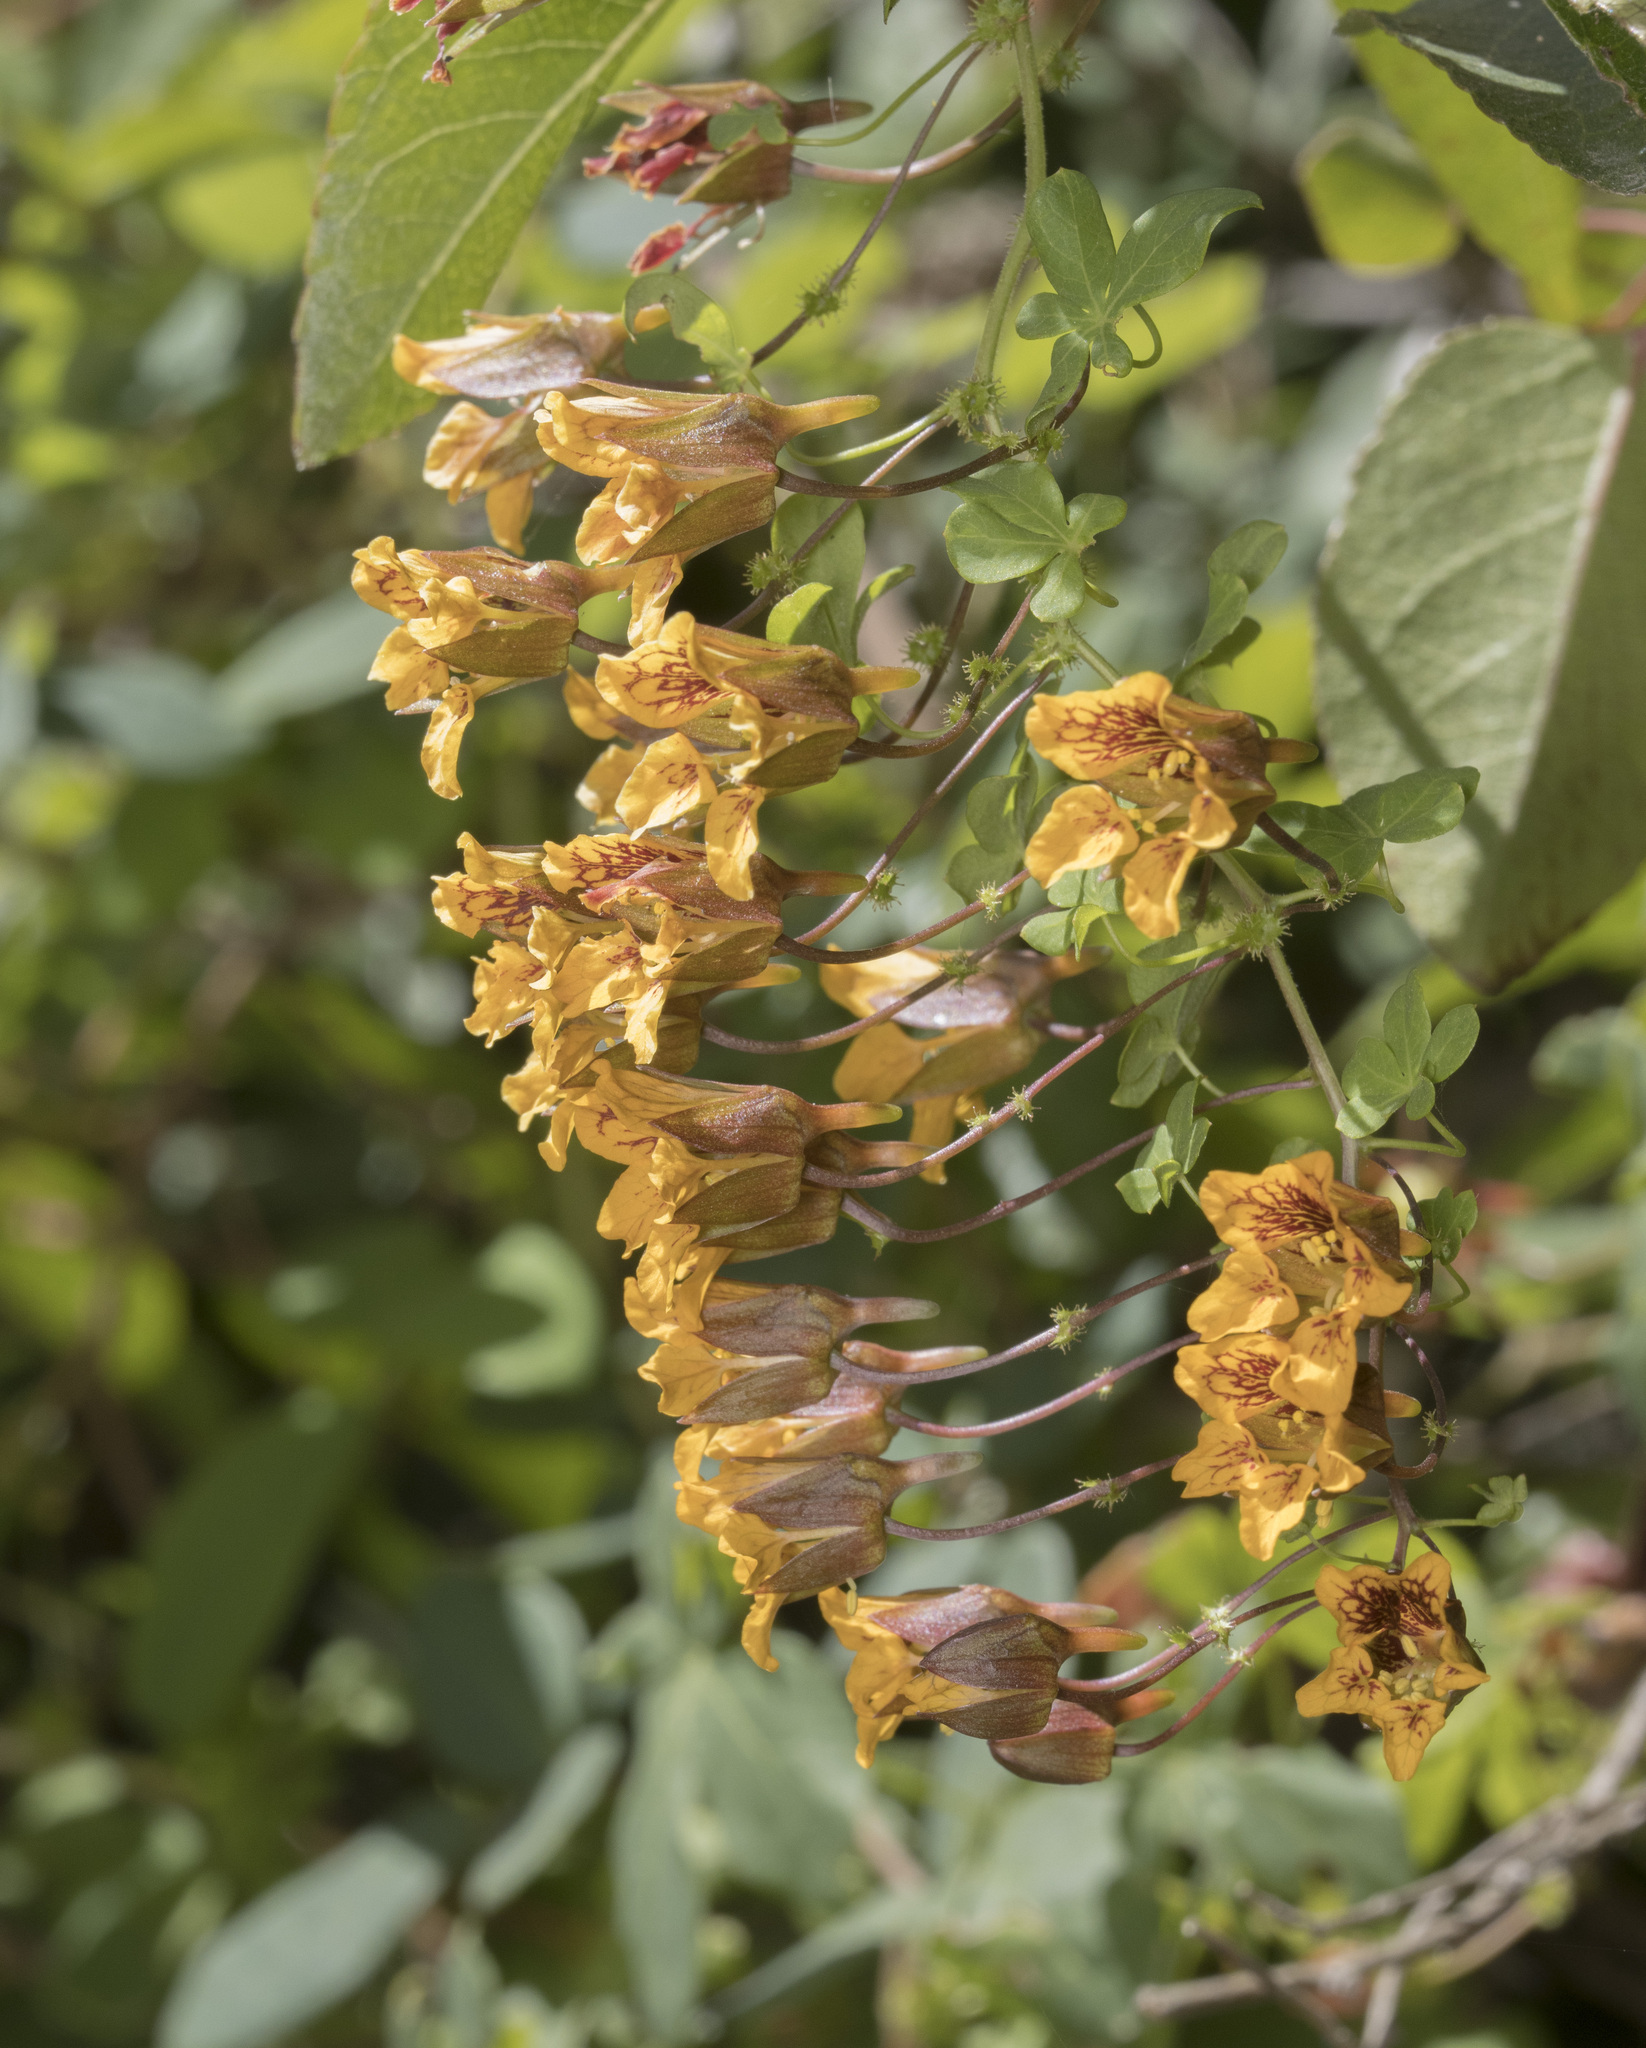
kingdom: Plantae
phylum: Tracheophyta
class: Magnoliopsida
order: Brassicales
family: Tropaeolaceae
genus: Tropaeolum
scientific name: Tropaeolum ciliatum
